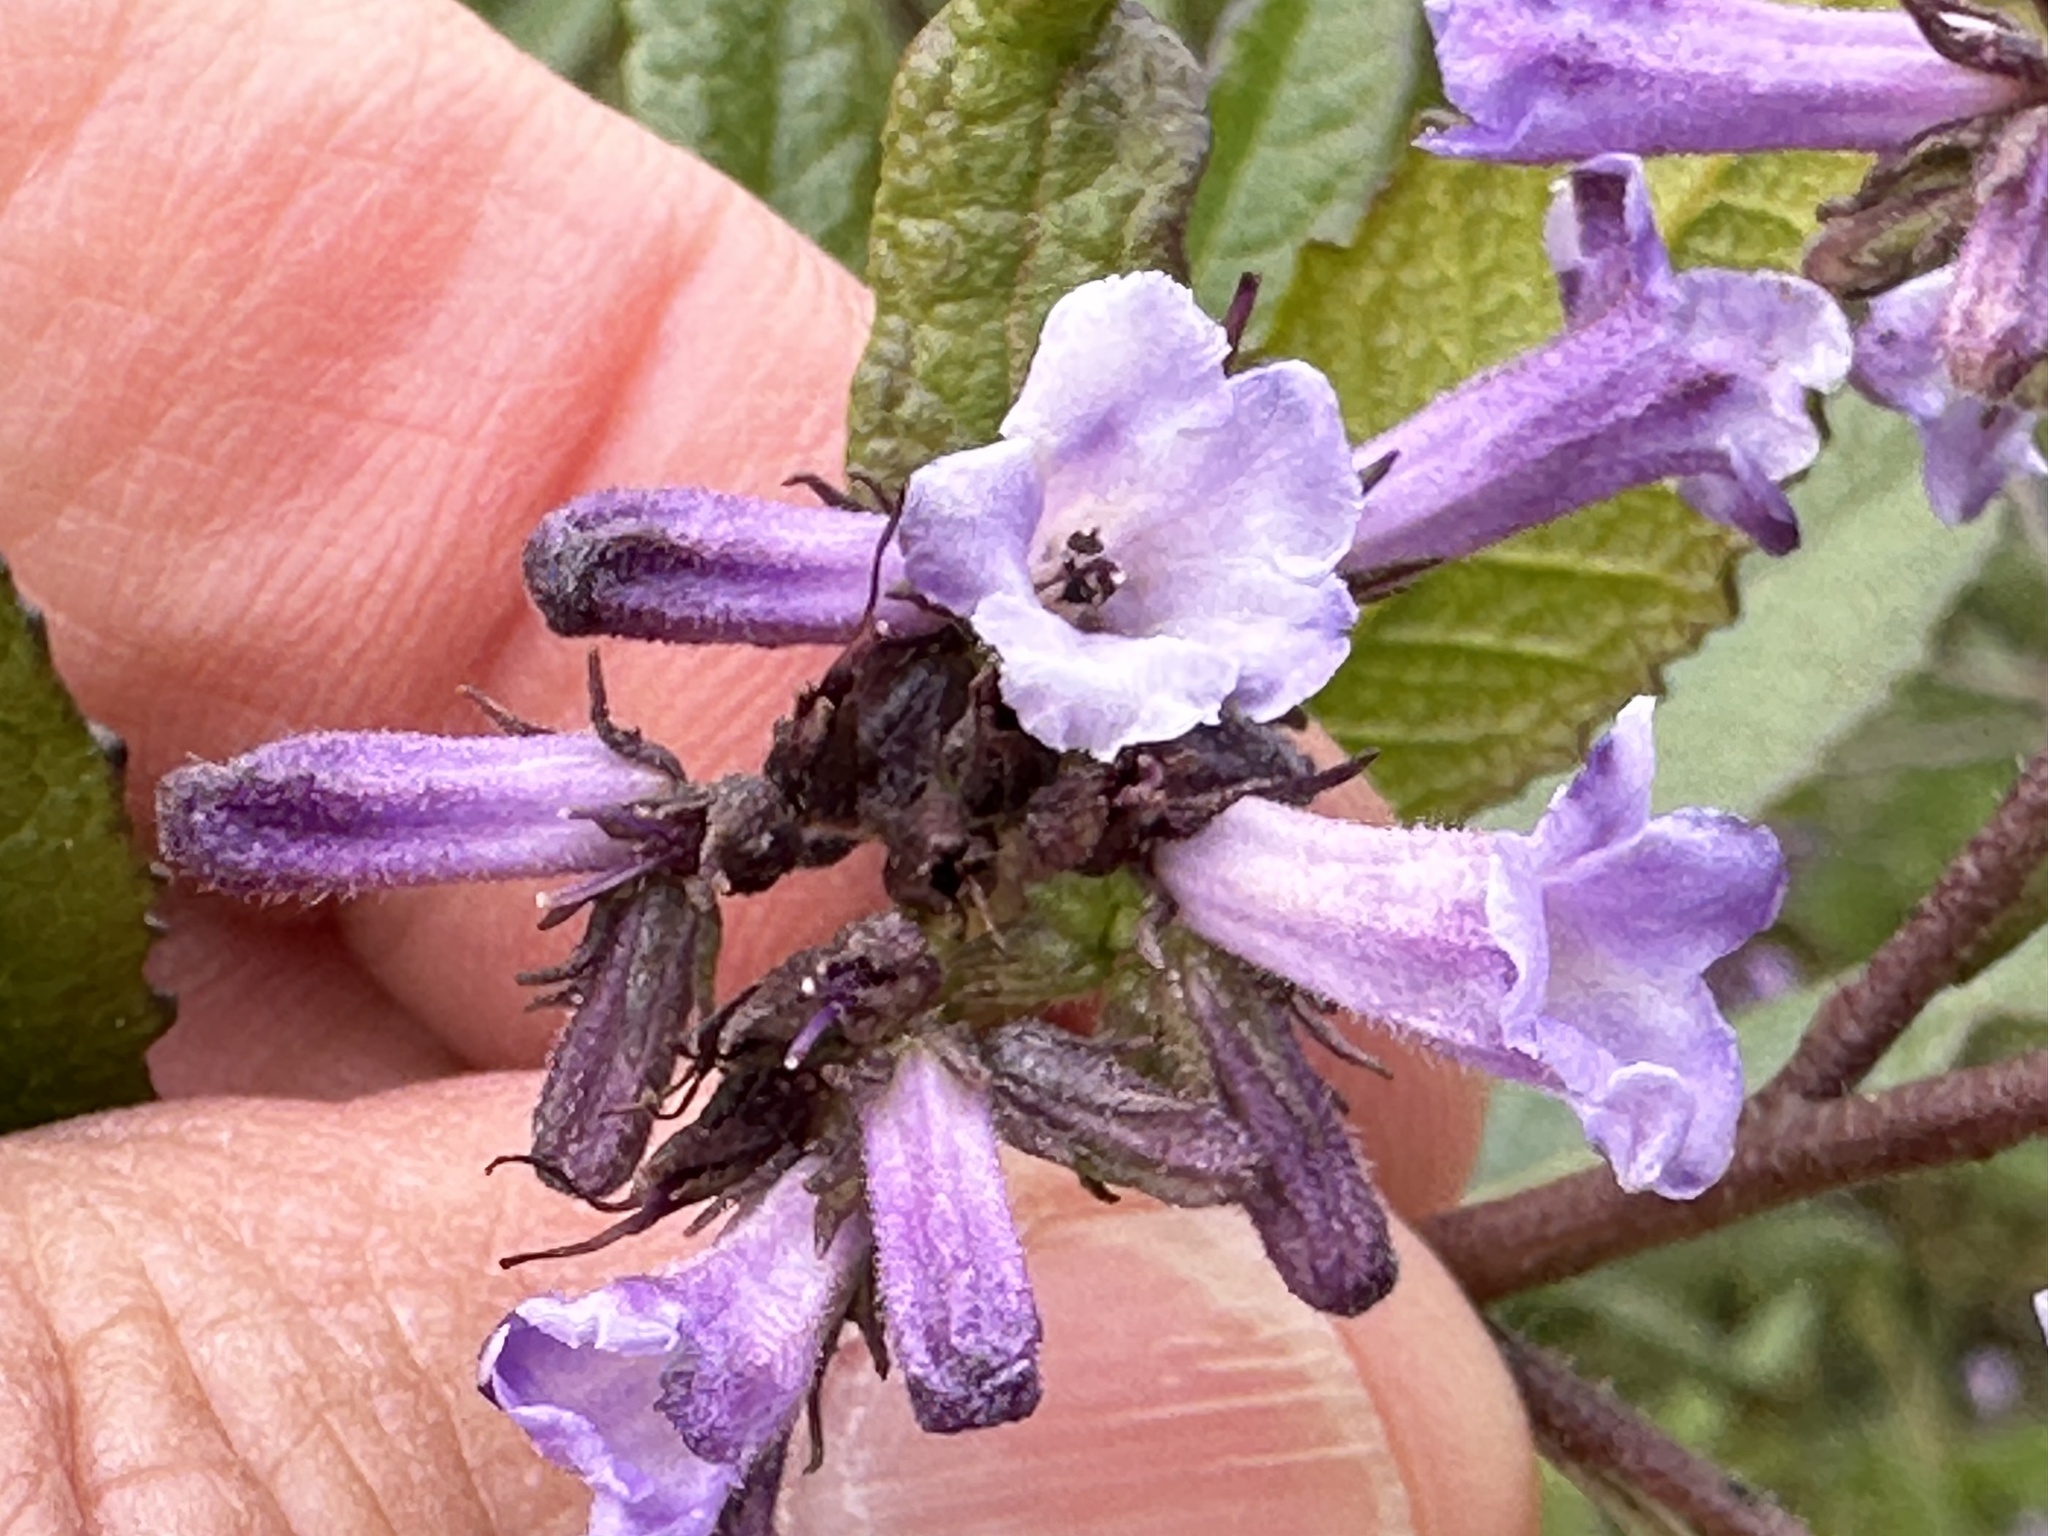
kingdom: Plantae
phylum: Tracheophyta
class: Magnoliopsida
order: Boraginales
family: Namaceae
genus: Eriodictyon
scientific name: Eriodictyon californicum
